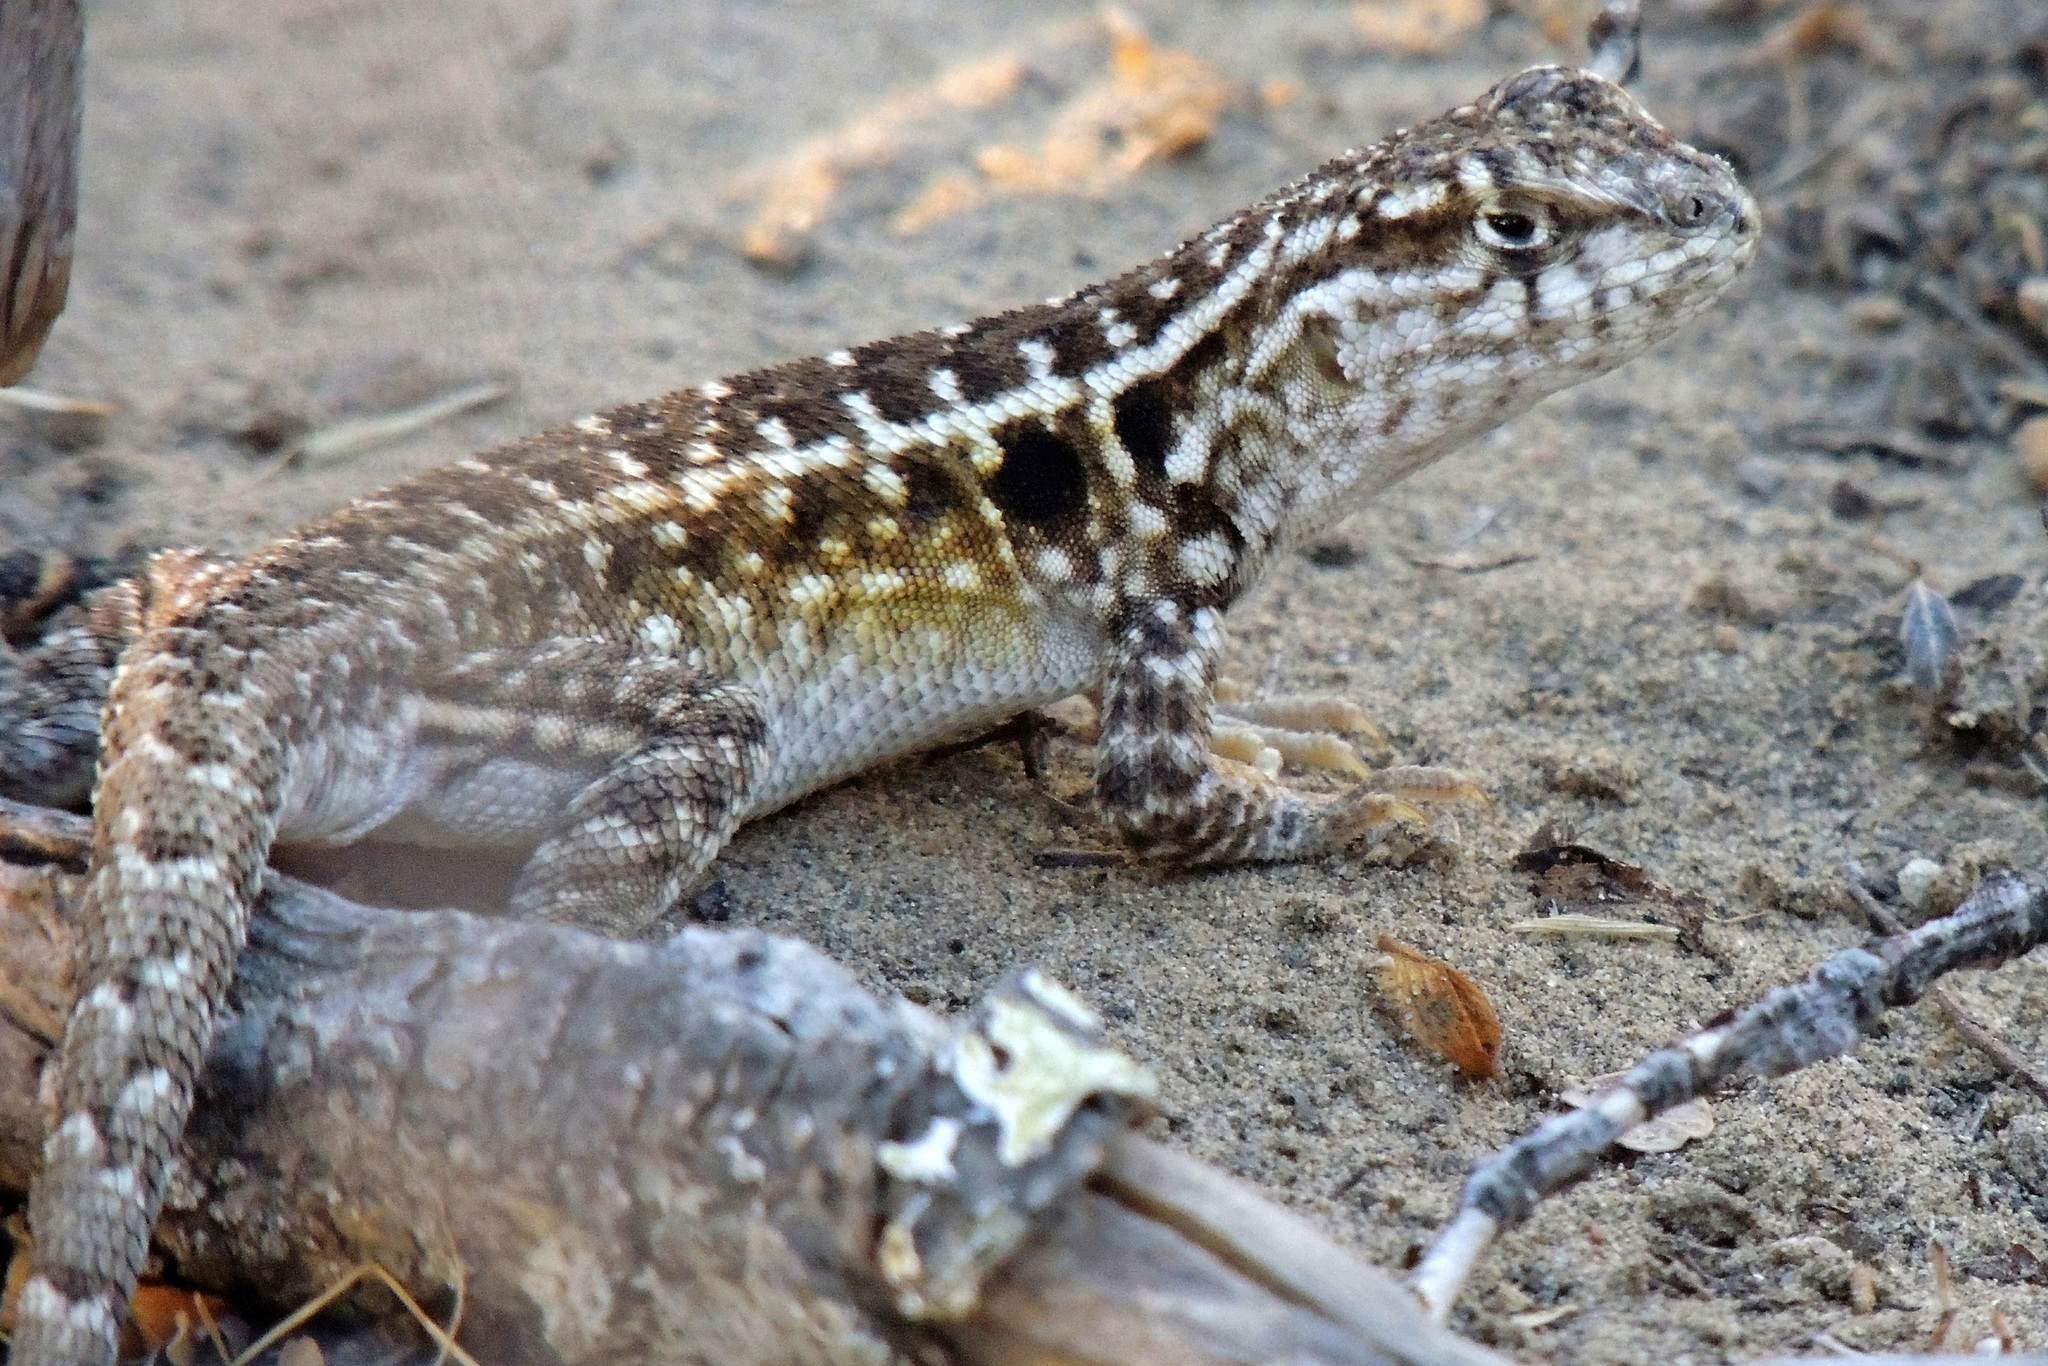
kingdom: Animalia
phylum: Chordata
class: Squamata
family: Liolaemidae
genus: Liolaemus
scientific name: Liolaemus darwinii
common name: Darwin's tree iguana
